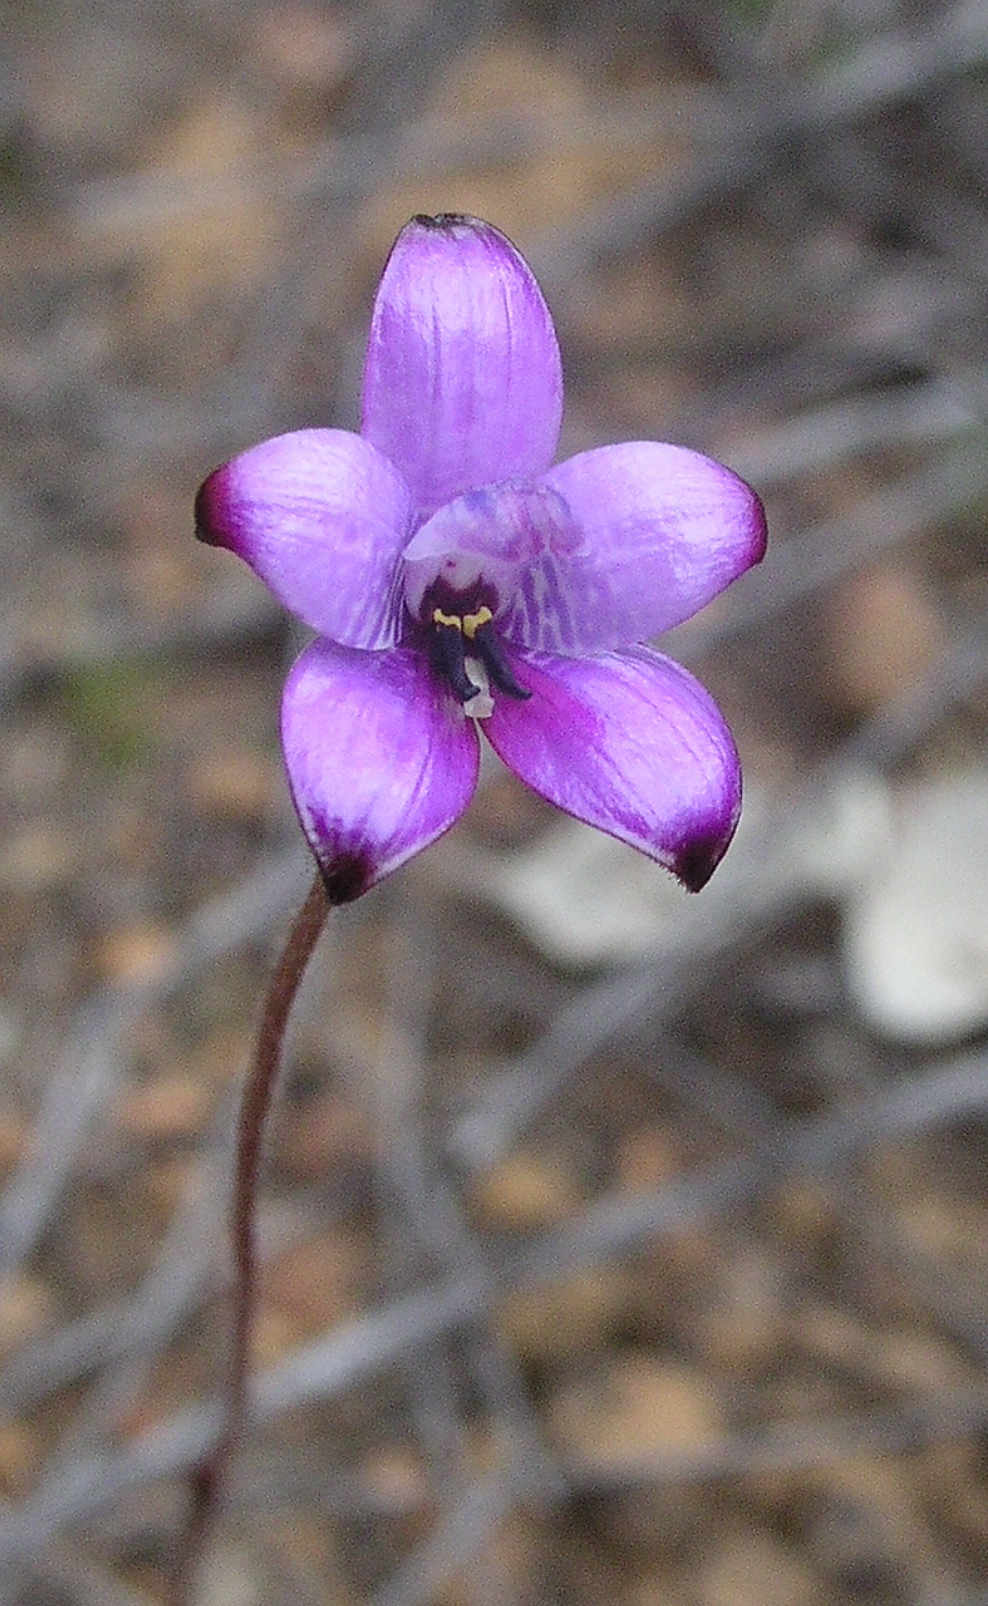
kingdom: Plantae
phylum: Tracheophyta
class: Liliopsida
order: Asparagales
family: Orchidaceae
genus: Caladenia
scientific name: Caladenia brunonis
